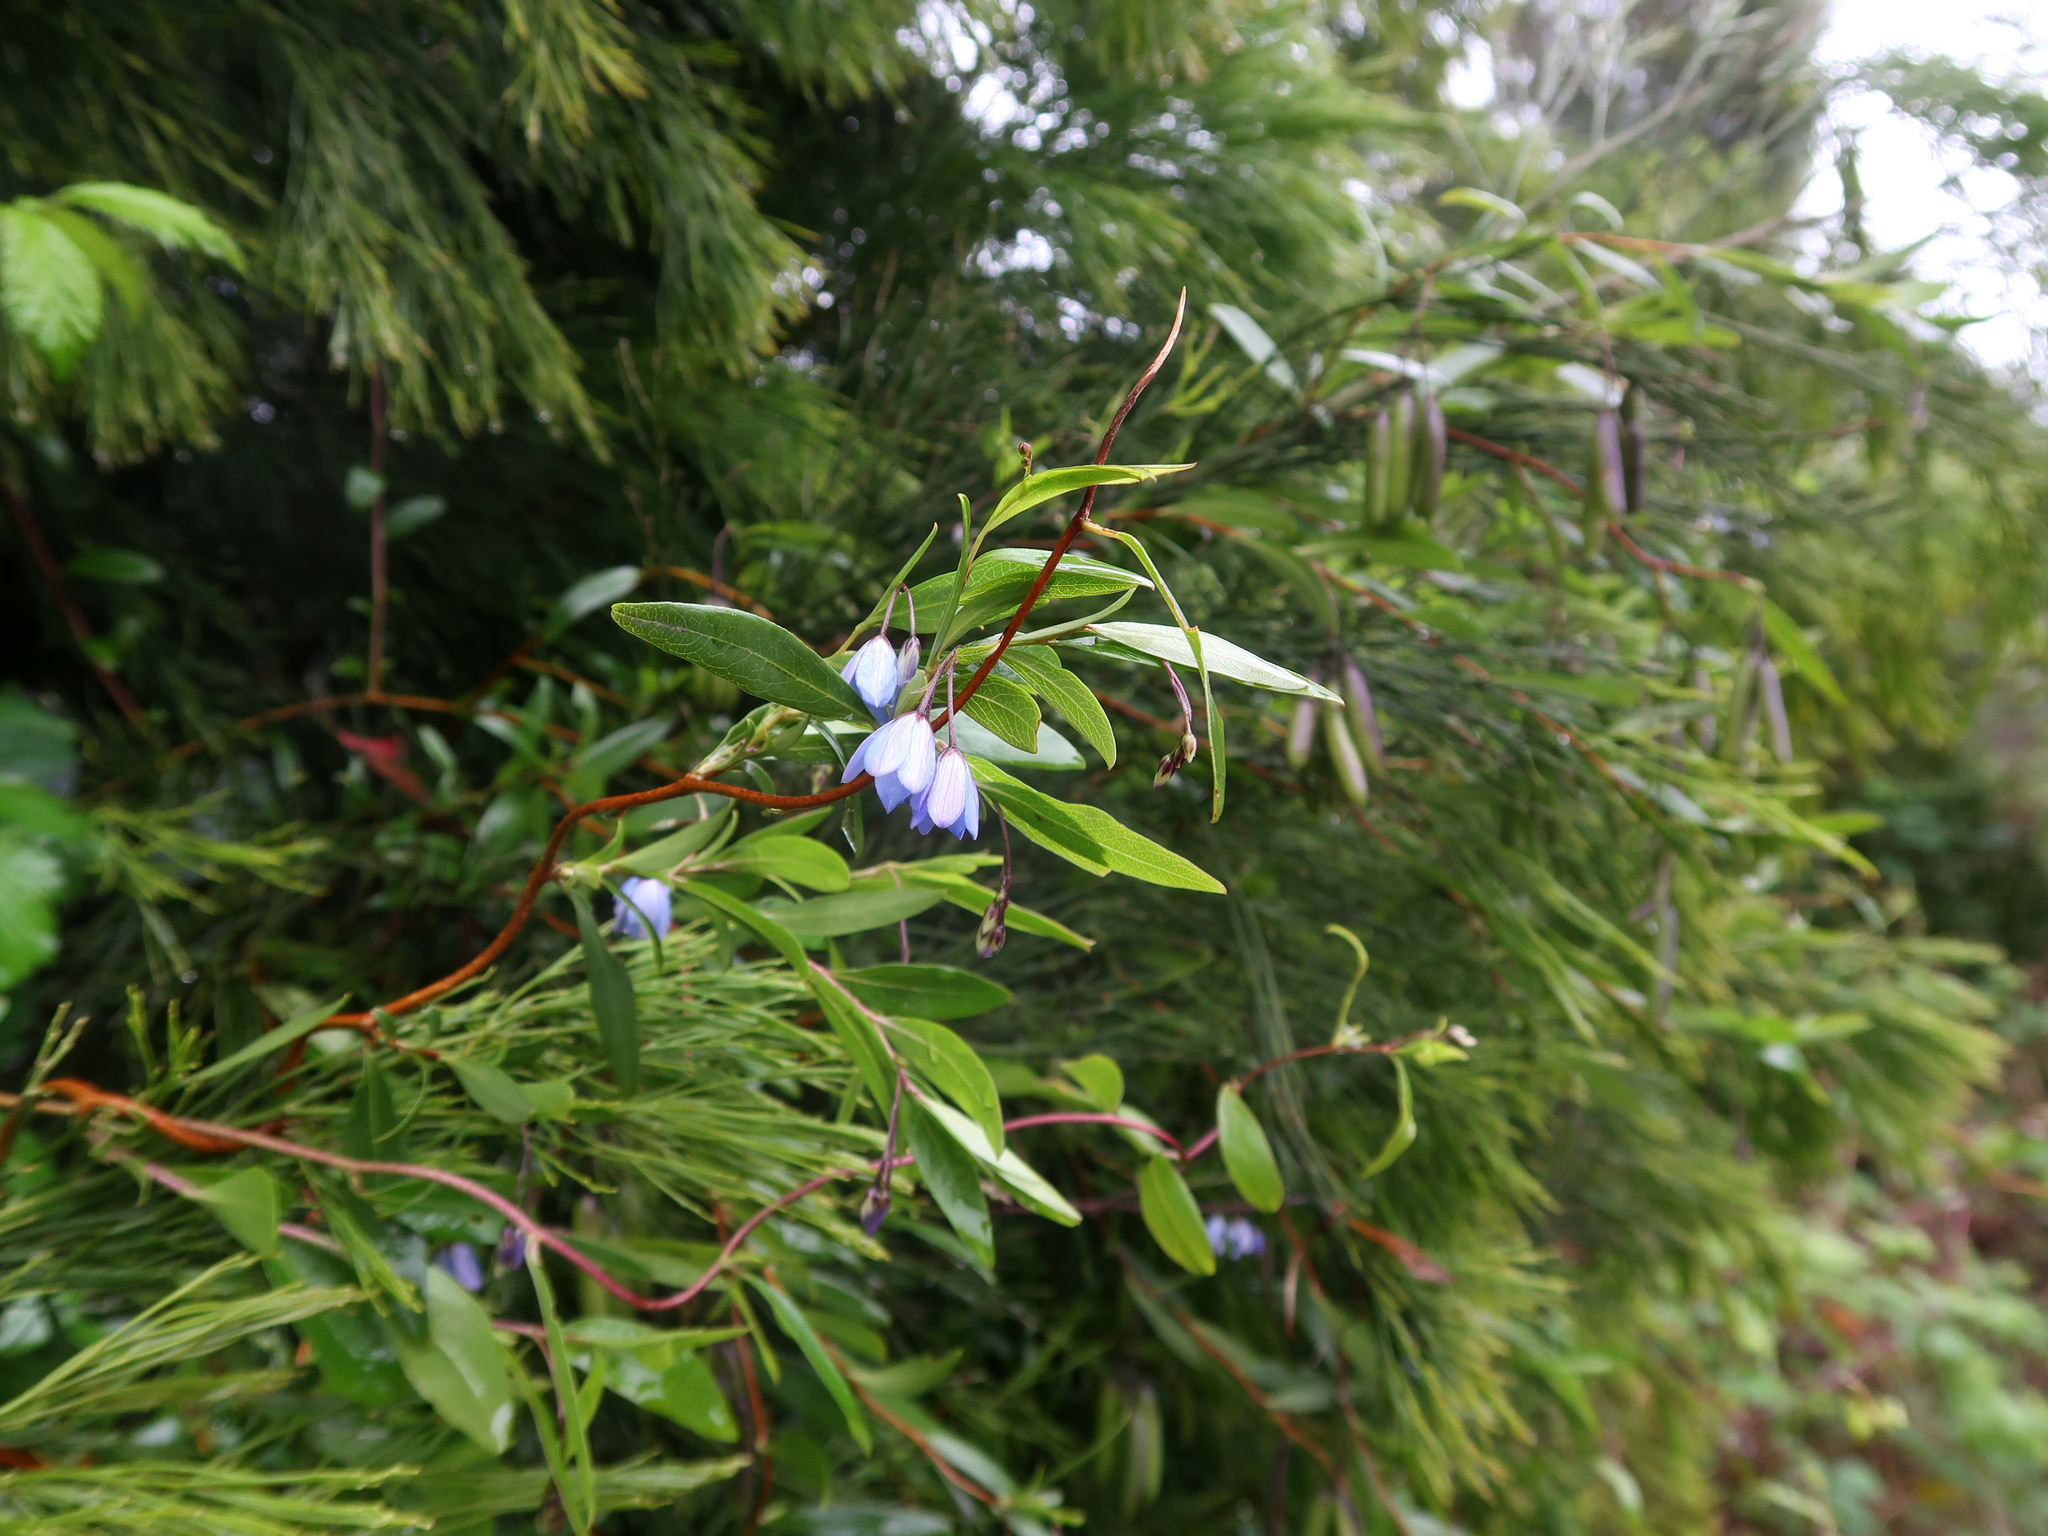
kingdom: Plantae
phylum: Tracheophyta
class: Magnoliopsida
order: Apiales
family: Pittosporaceae
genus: Billardiera
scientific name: Billardiera heterophylla
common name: Bluebell creeper
